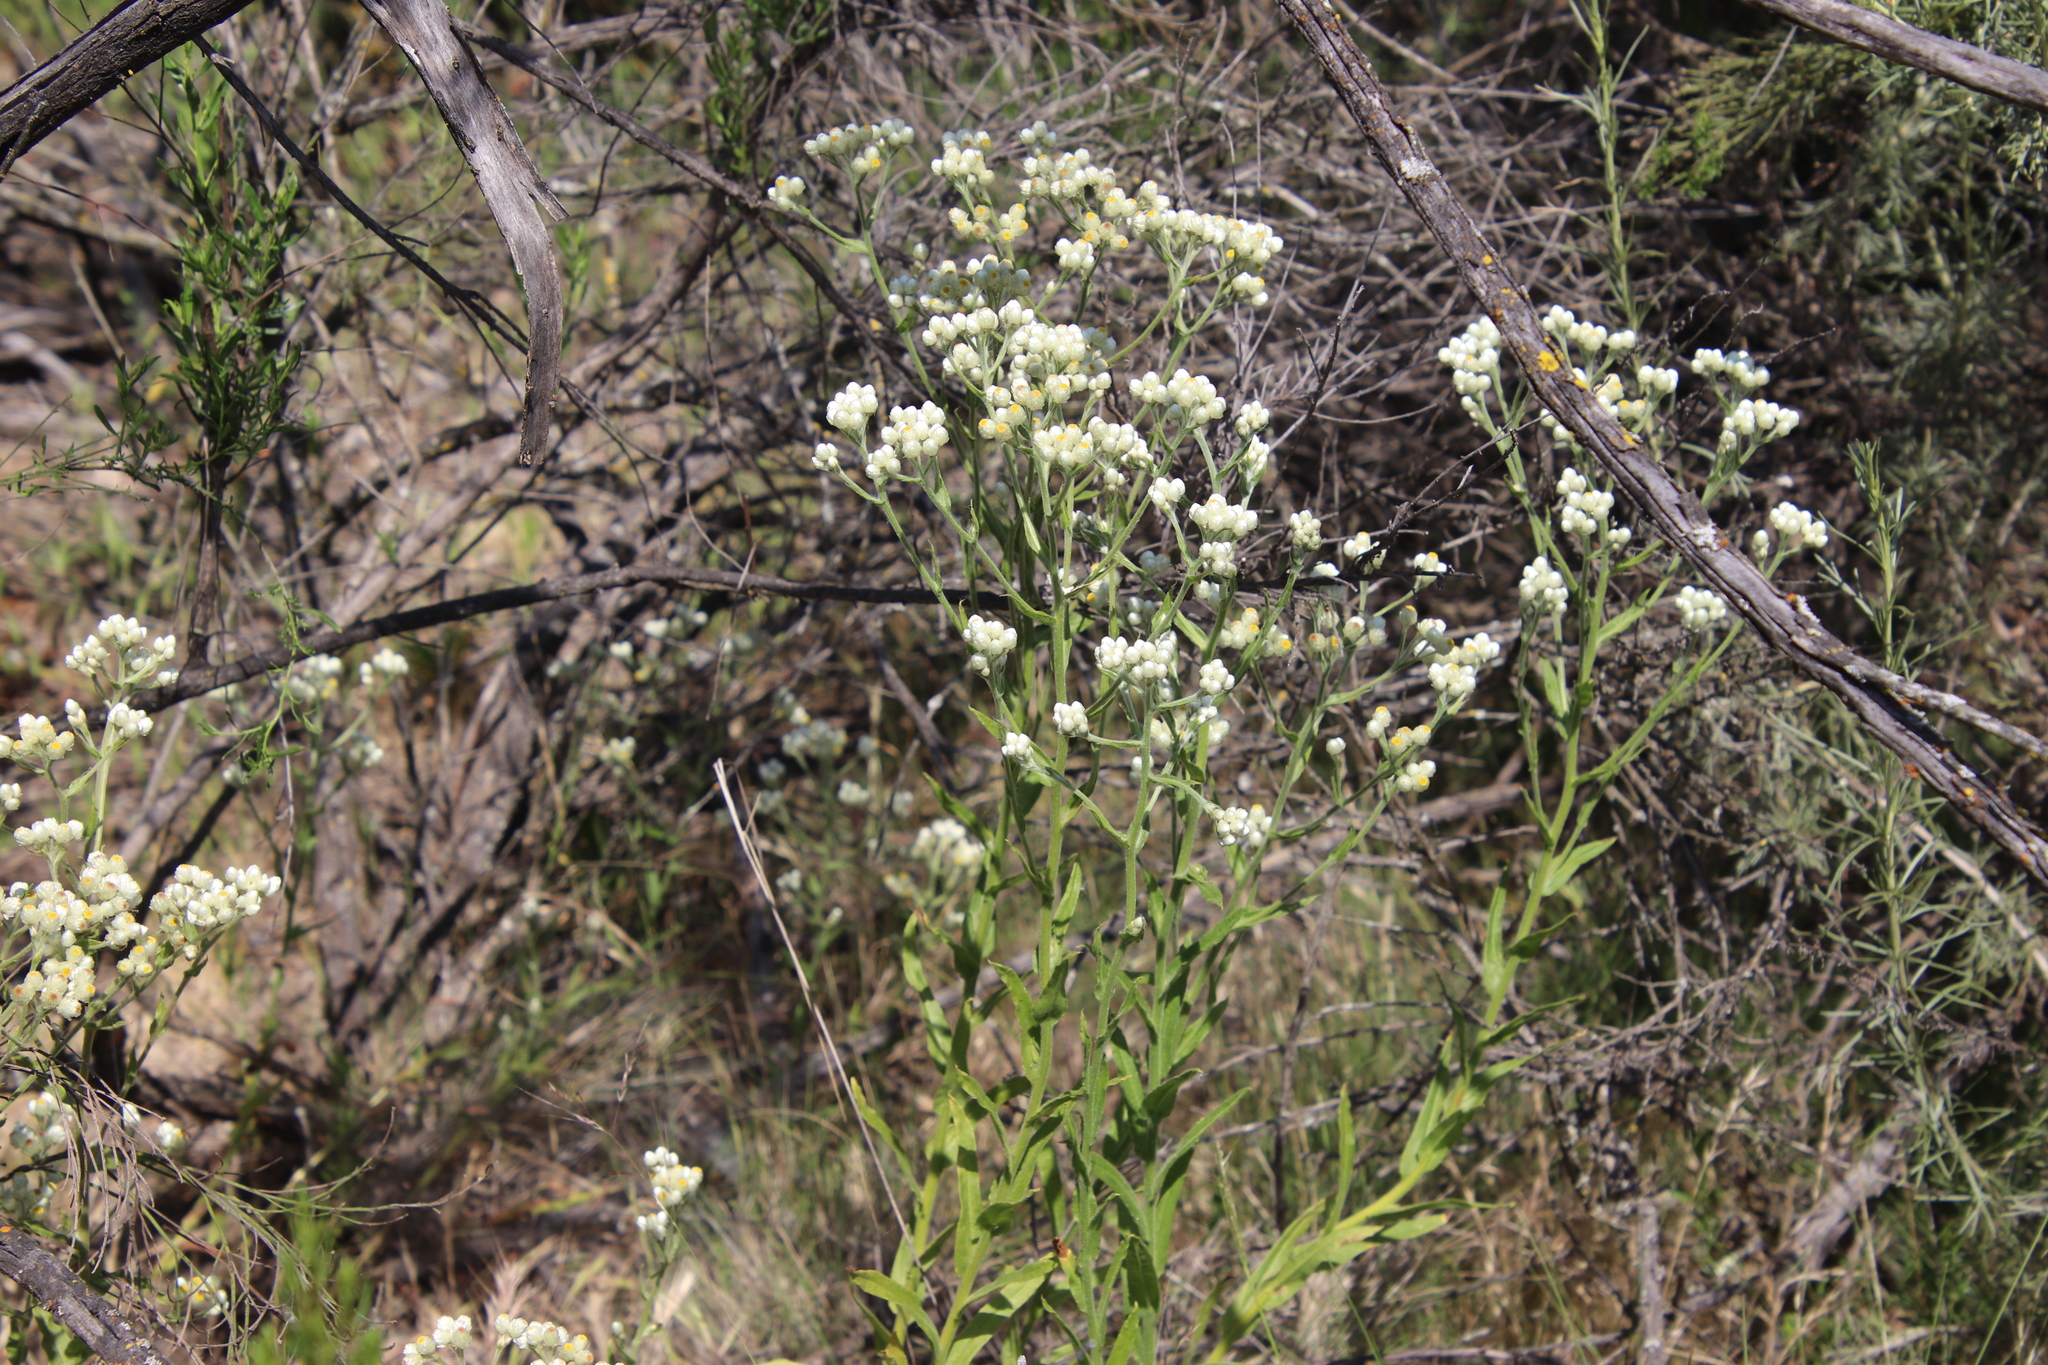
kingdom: Plantae
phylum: Tracheophyta
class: Magnoliopsida
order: Asterales
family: Asteraceae
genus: Pseudognaphalium
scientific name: Pseudognaphalium californicum
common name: California rabbit-tobacco
